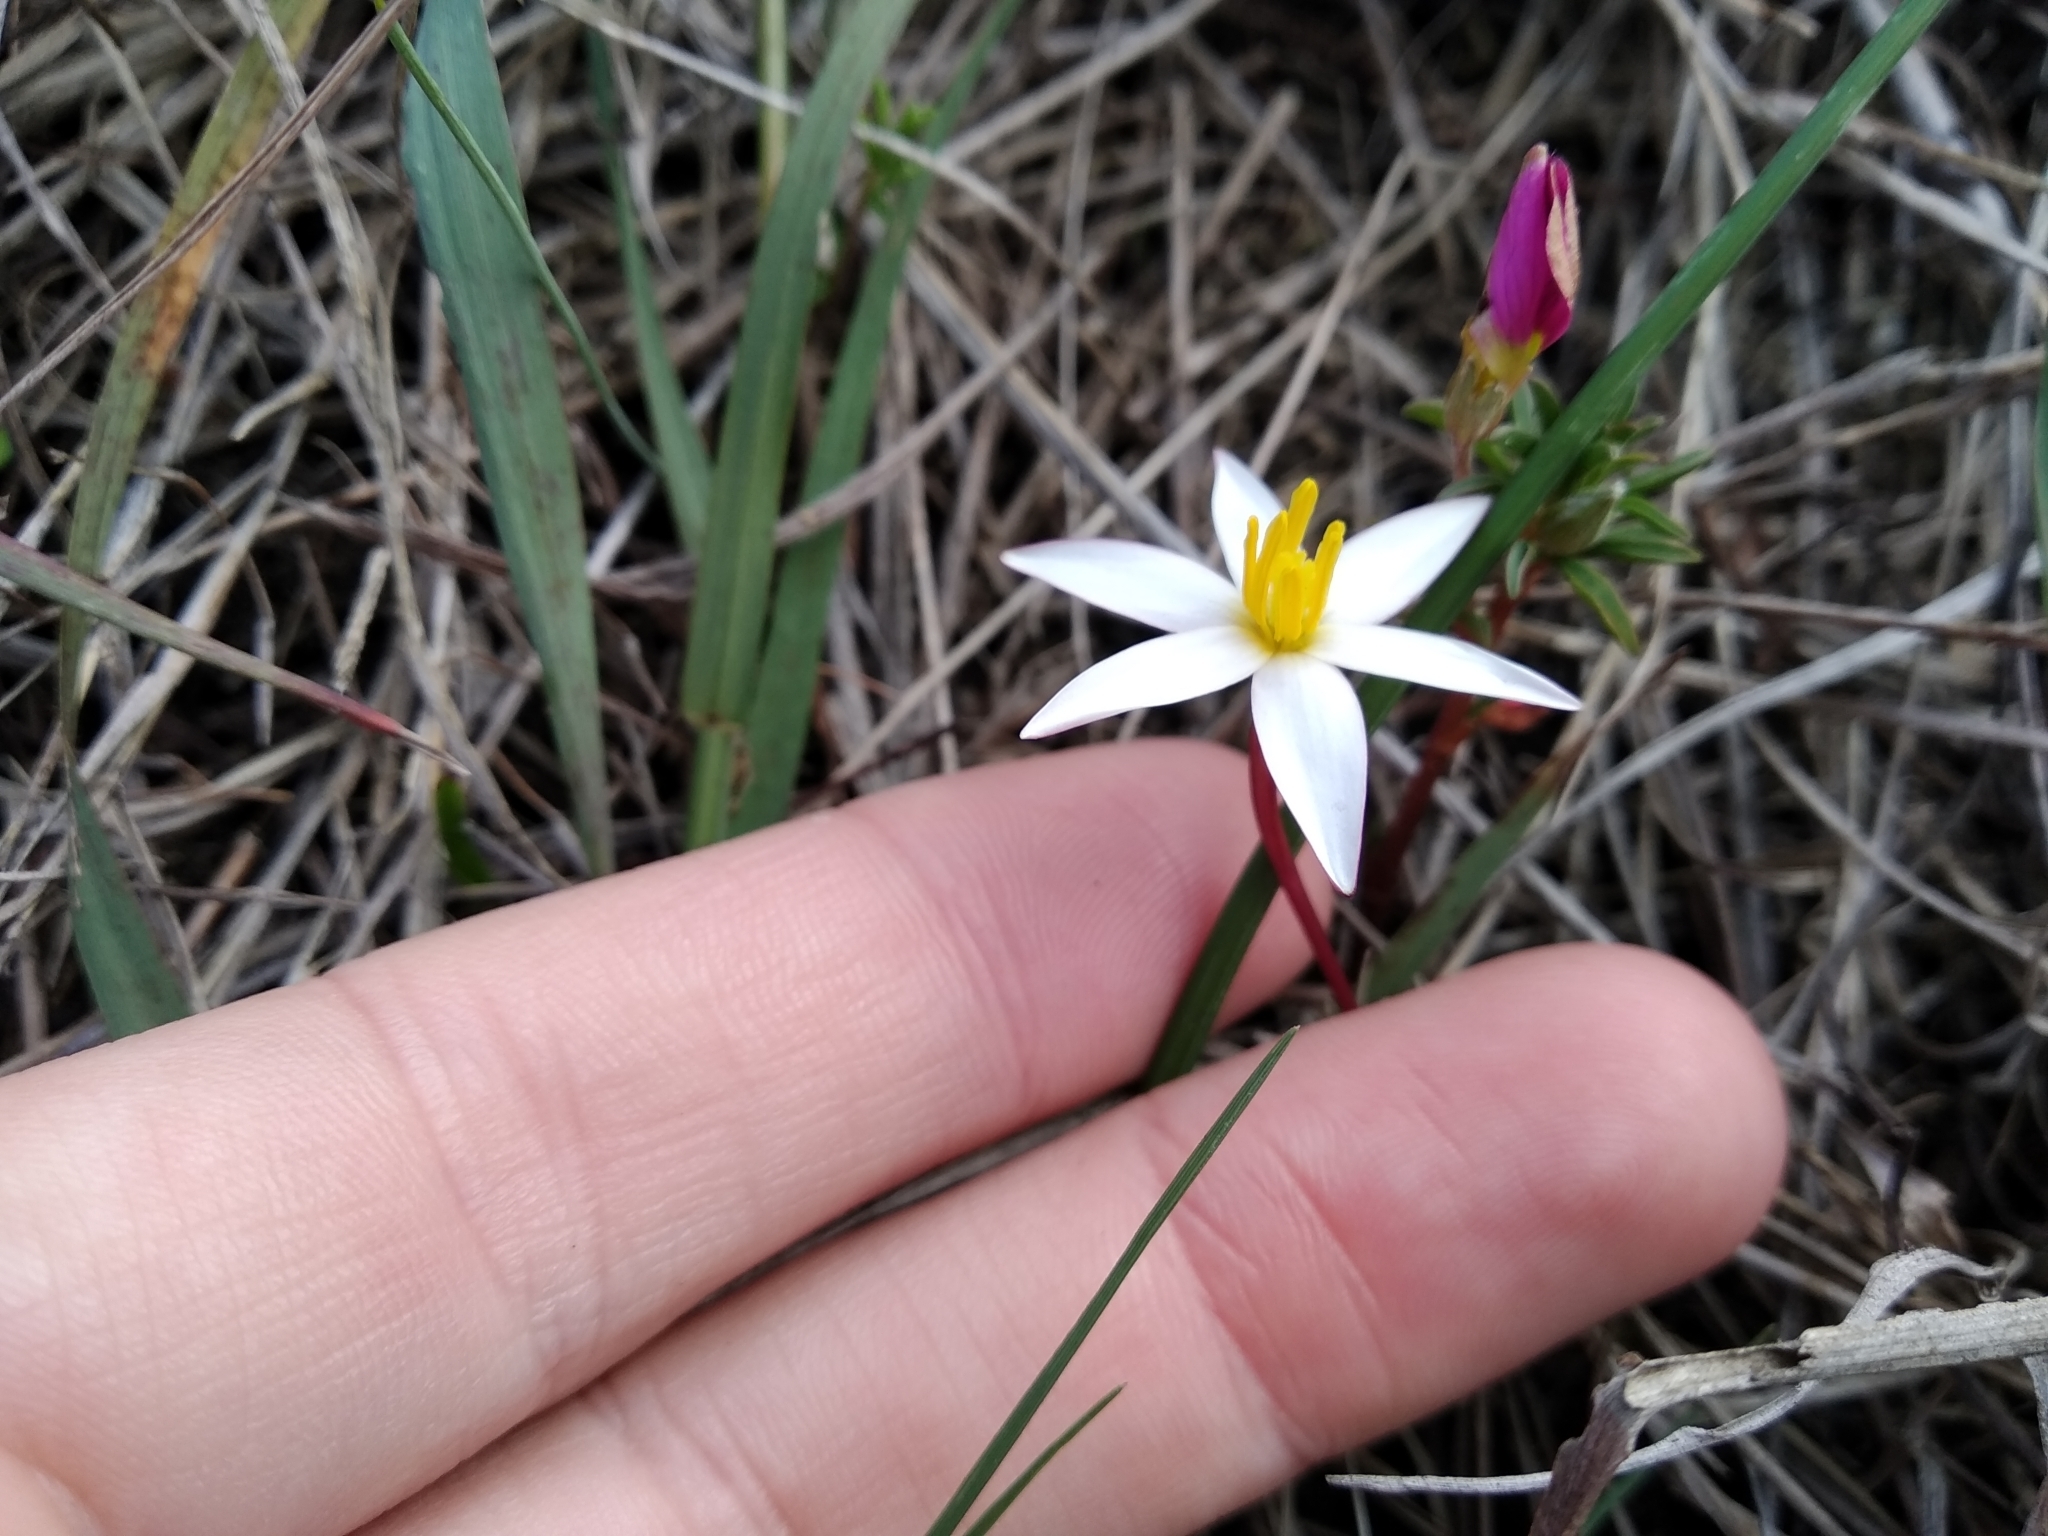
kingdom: Plantae
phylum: Tracheophyta
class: Liliopsida
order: Asparagales
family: Hypoxidaceae
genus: Pauridia
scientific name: Pauridia alba
